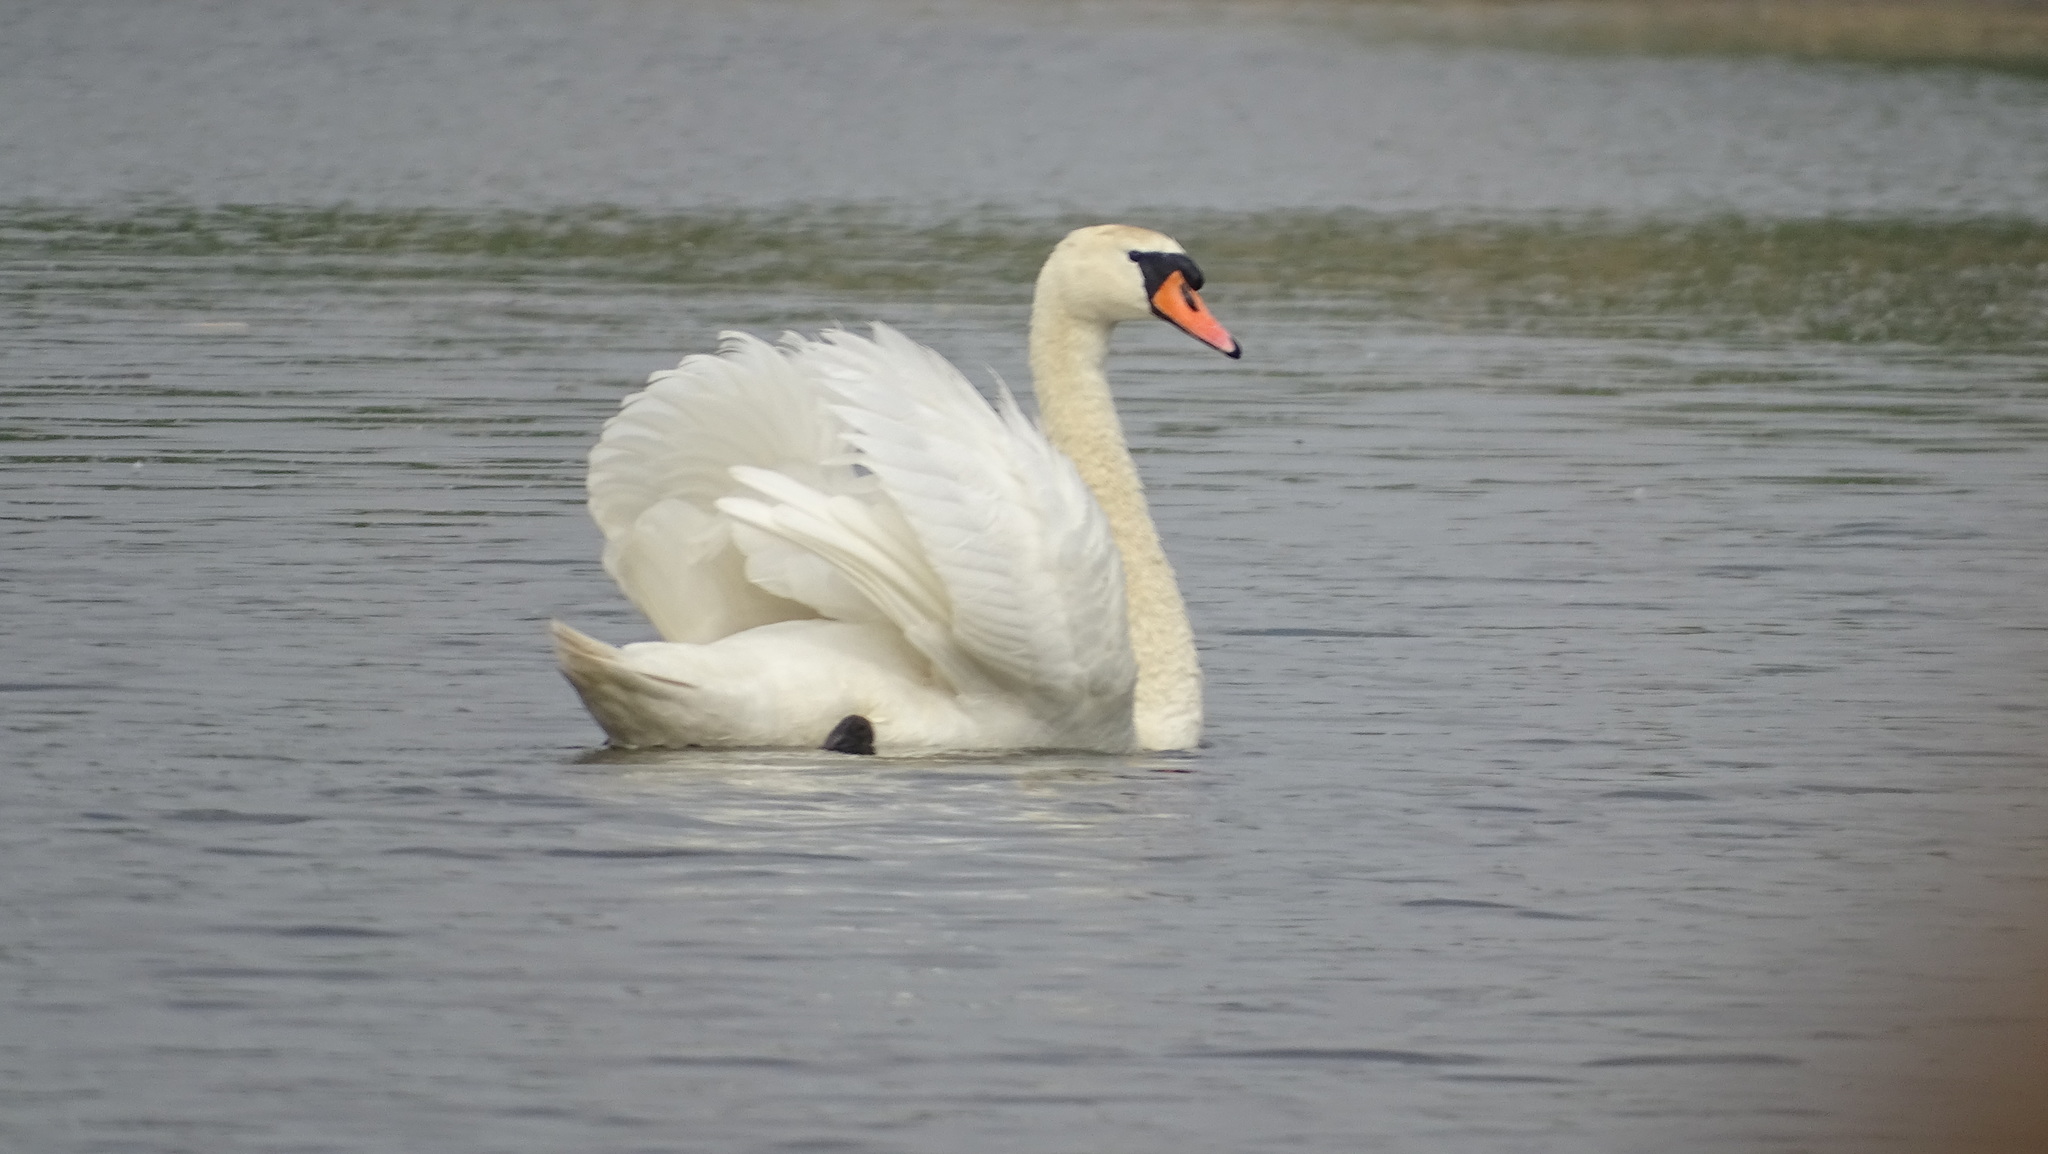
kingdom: Animalia
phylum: Chordata
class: Aves
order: Anseriformes
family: Anatidae
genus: Cygnus
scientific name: Cygnus olor
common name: Mute swan
